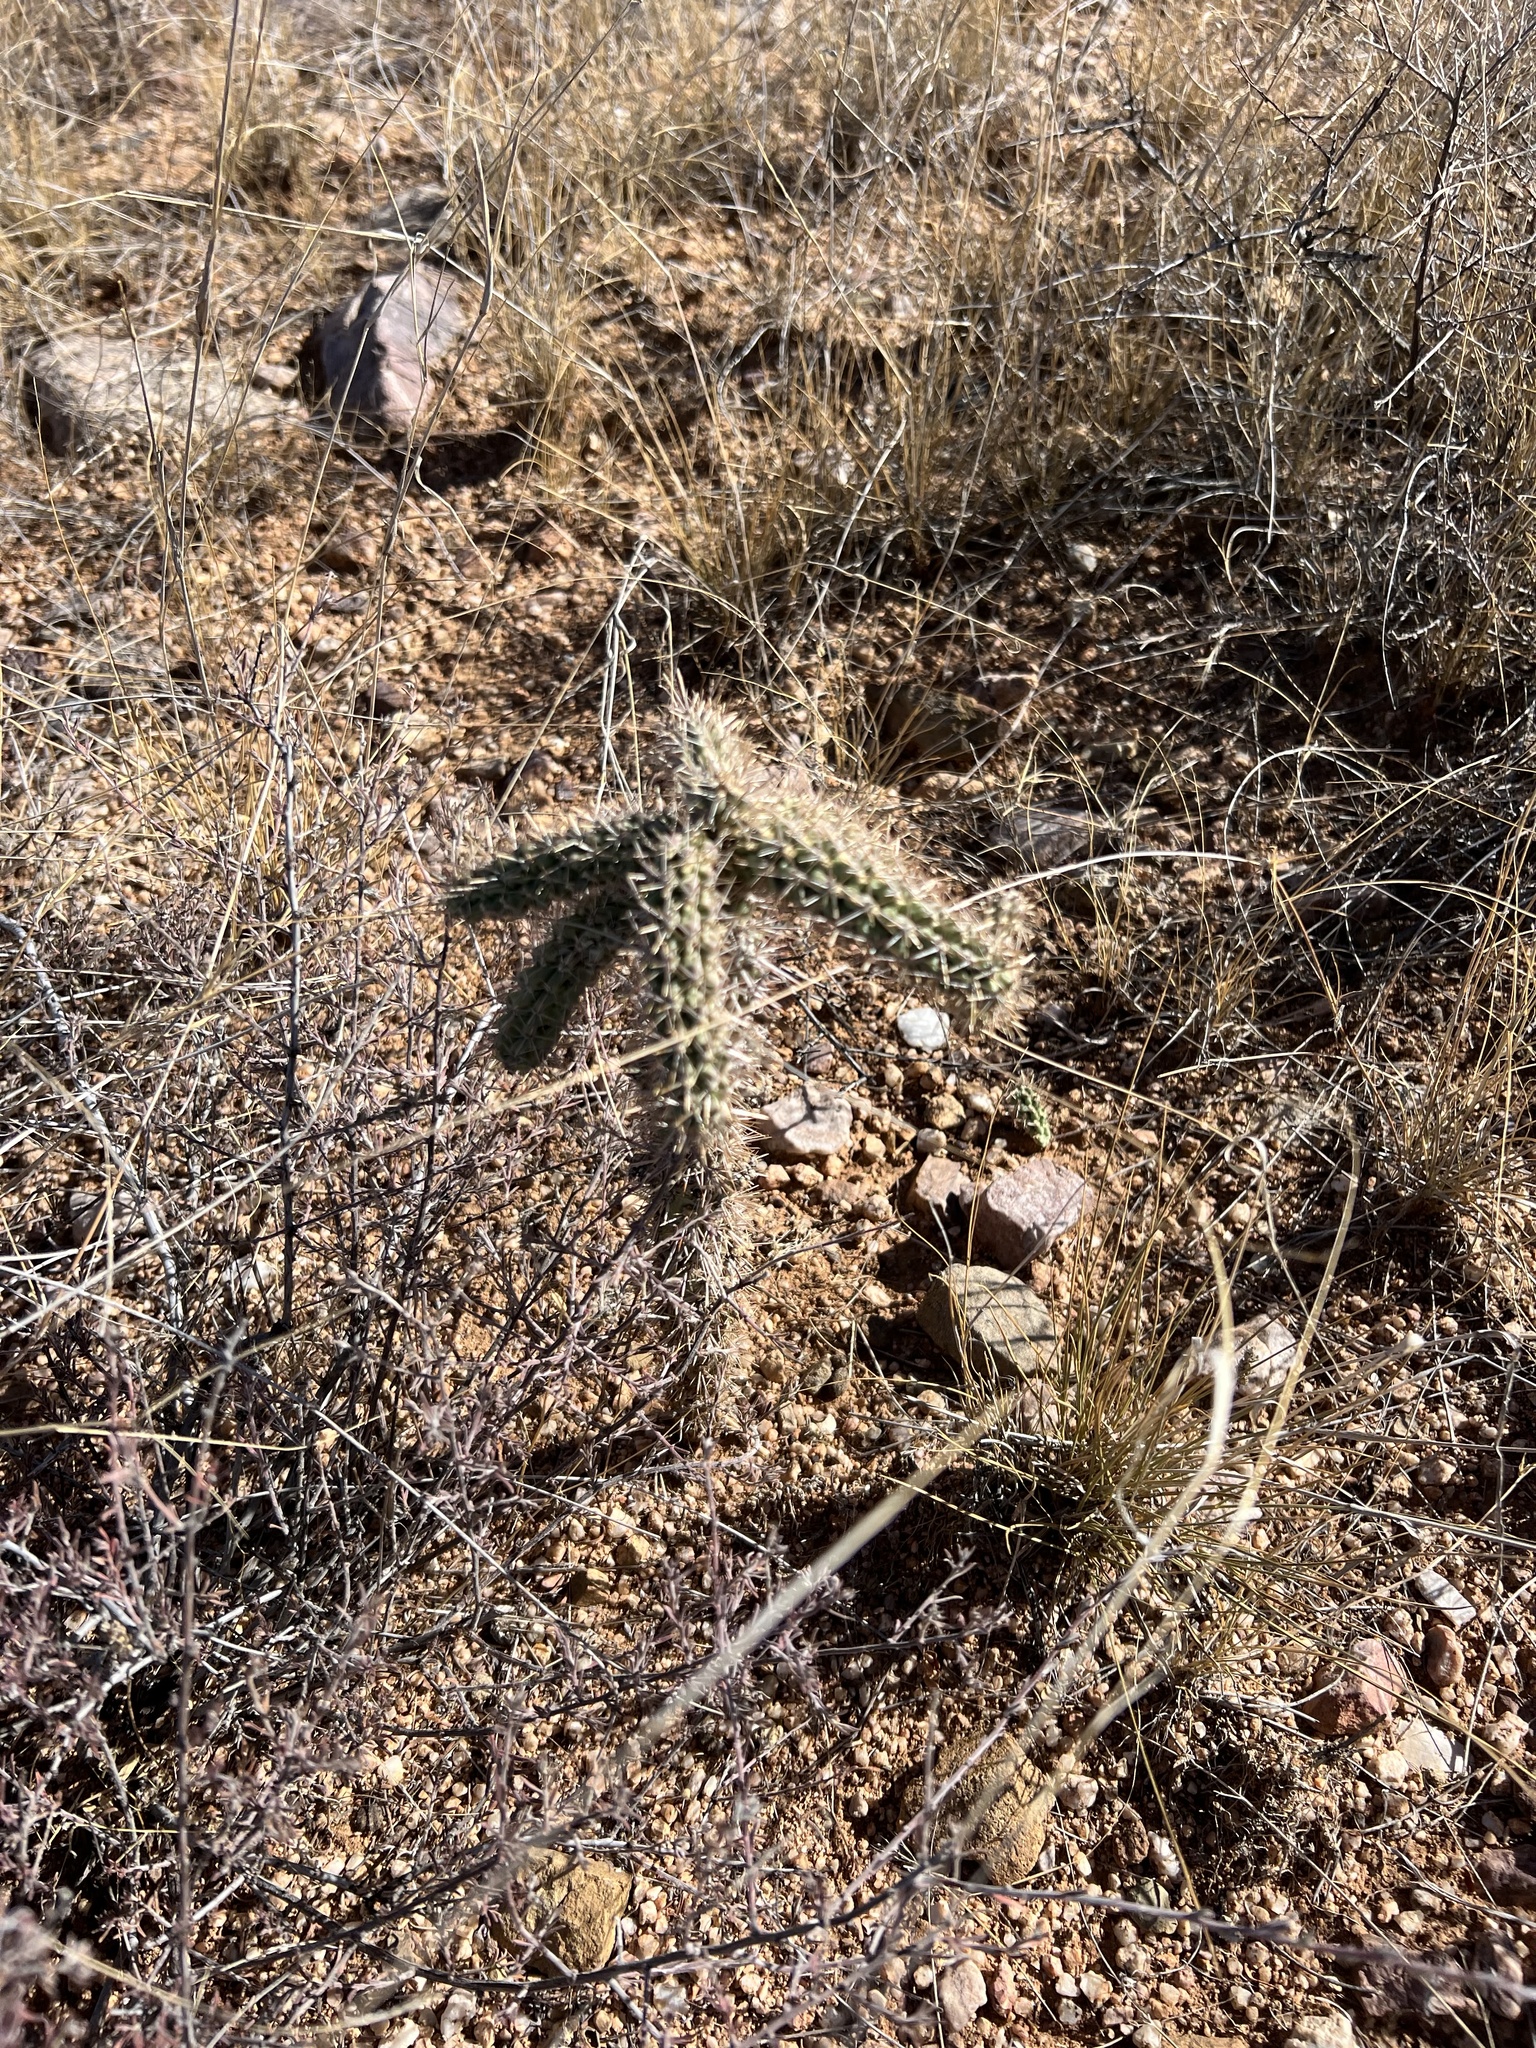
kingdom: Plantae
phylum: Tracheophyta
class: Magnoliopsida
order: Caryophyllales
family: Cactaceae
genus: Cylindropuntia
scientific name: Cylindropuntia imbricata
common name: Candelabrum cactus
